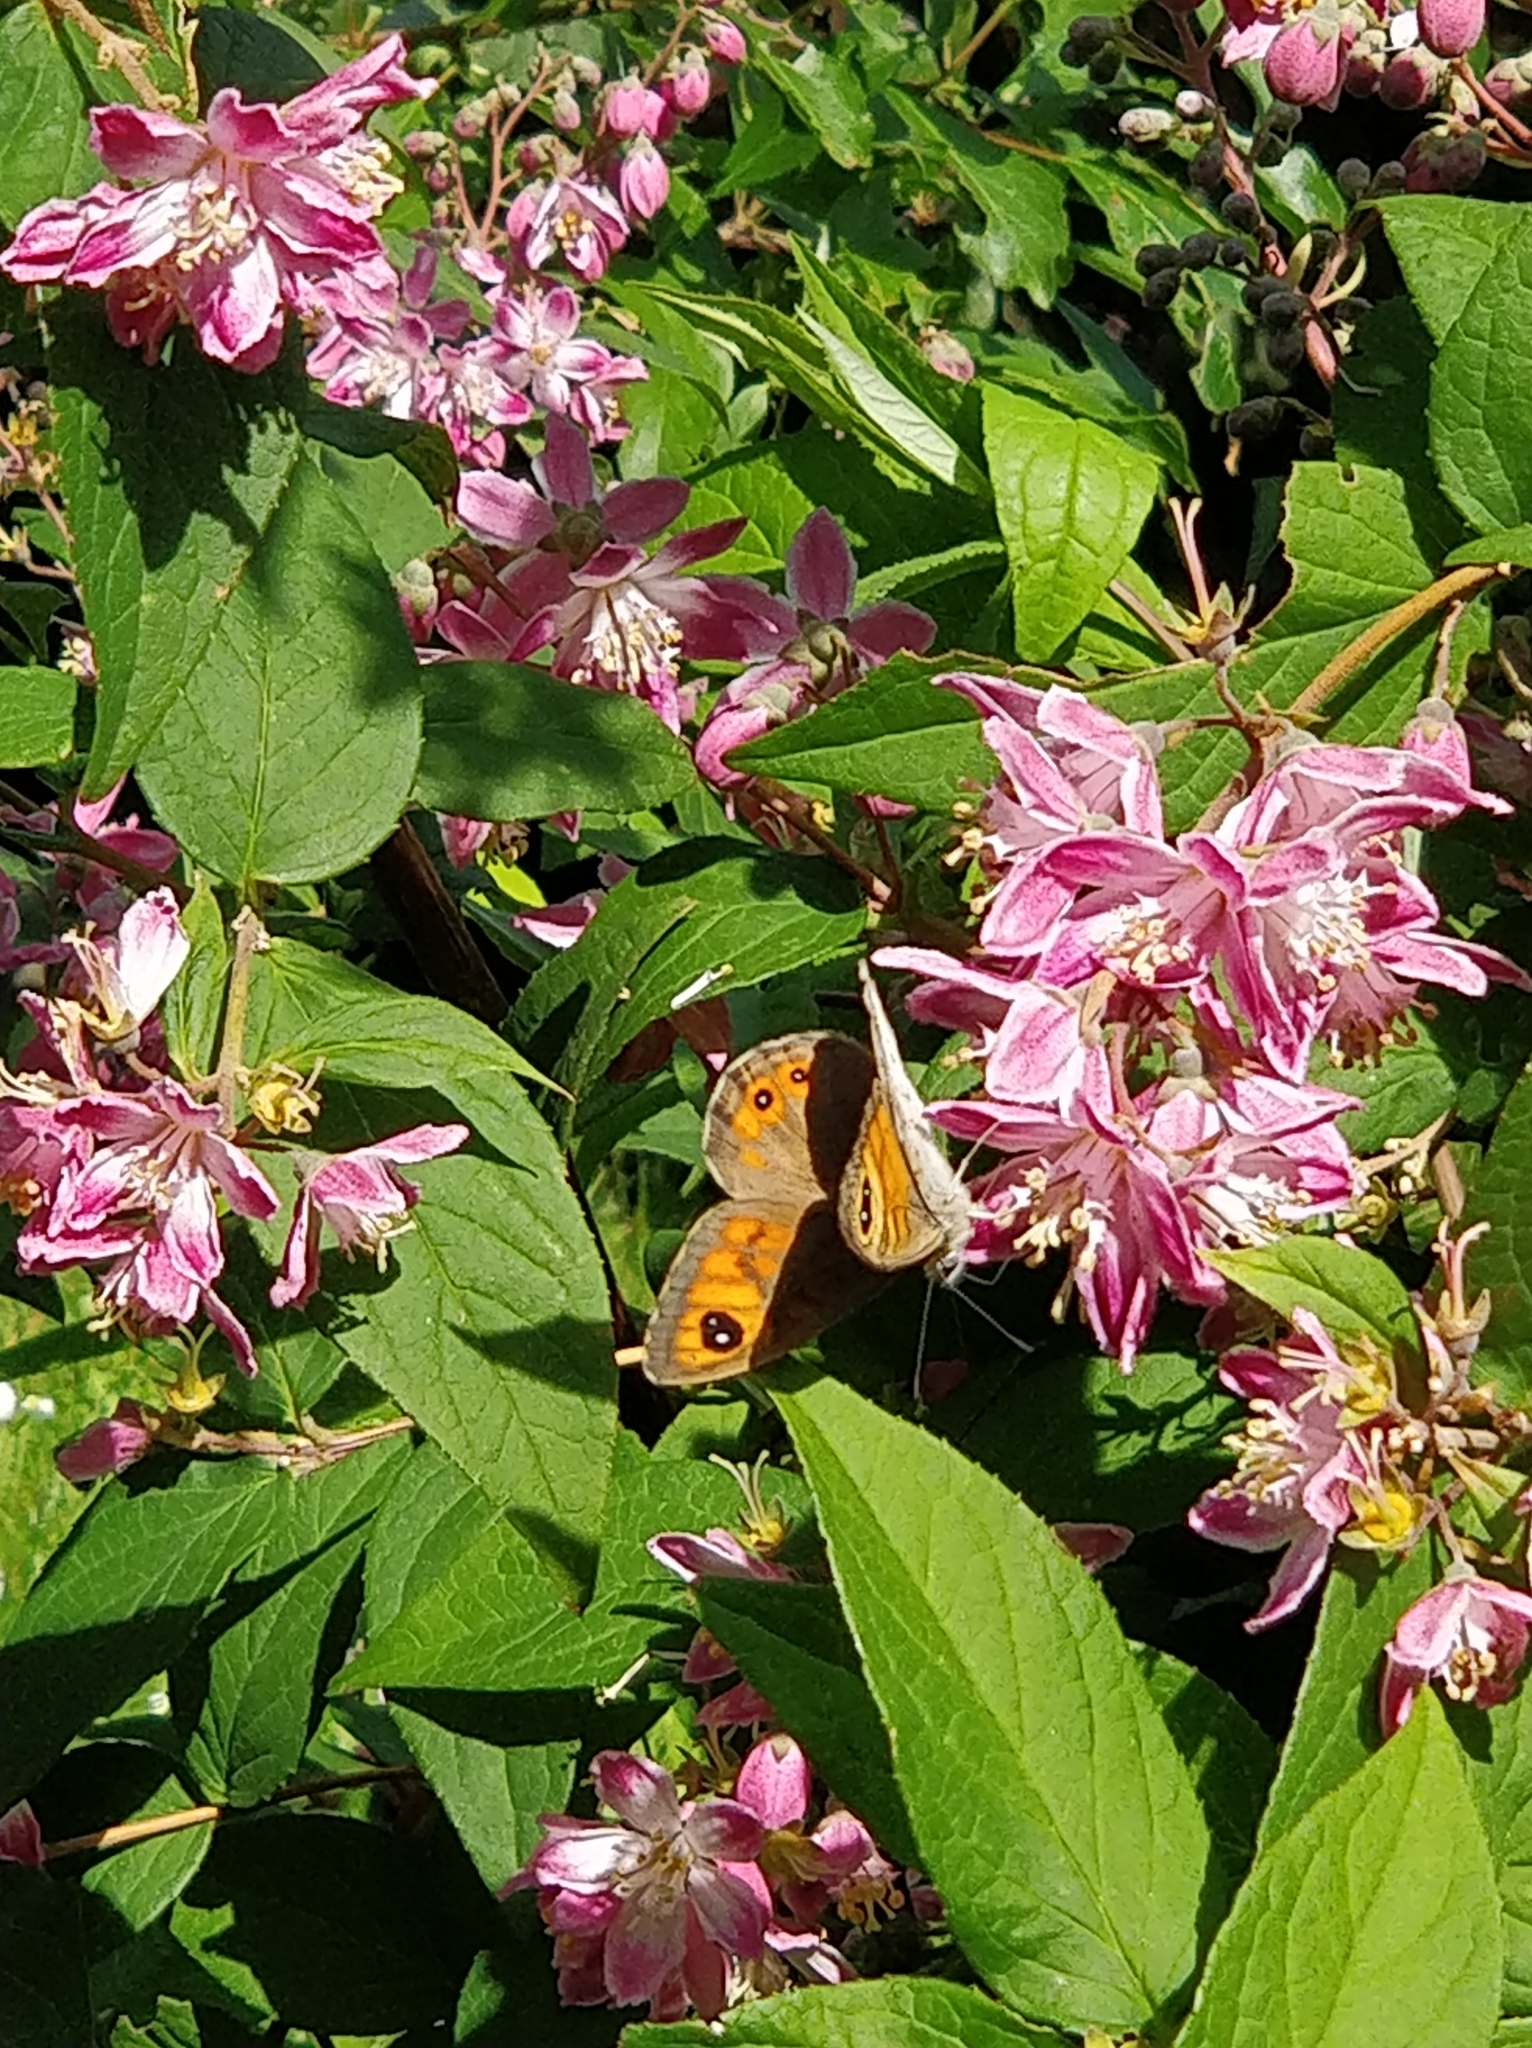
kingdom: Animalia
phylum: Arthropoda
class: Insecta
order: Lepidoptera
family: Nymphalidae
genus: Pararge
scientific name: Pararge Lasiommata maera
